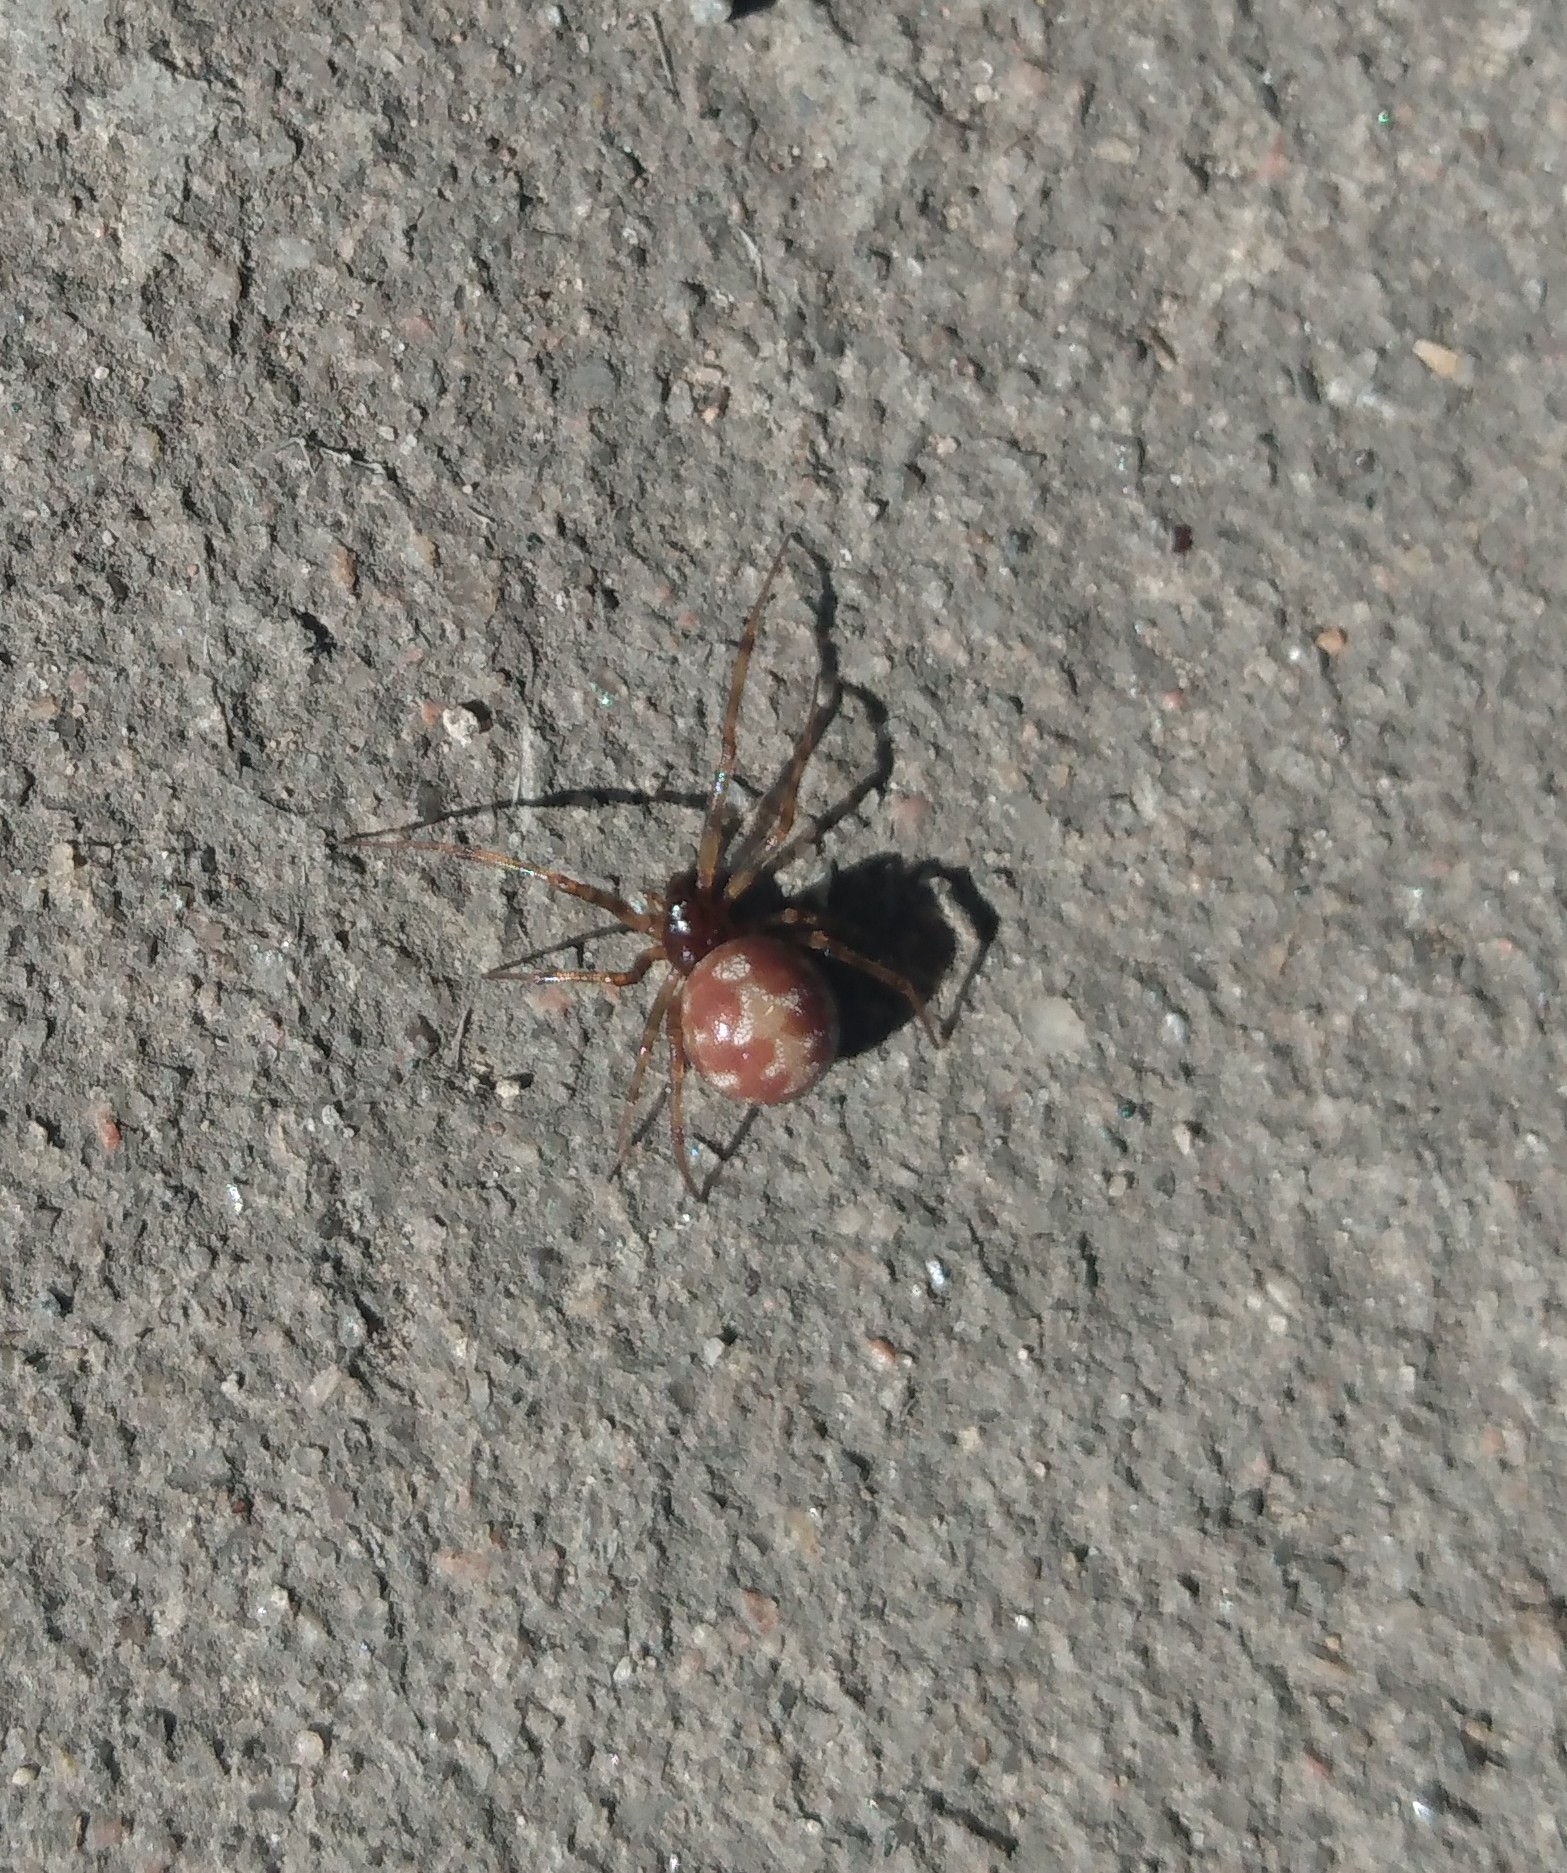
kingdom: Animalia
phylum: Arthropoda
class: Arachnida
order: Araneae
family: Theridiidae
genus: Steatoda
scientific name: Steatoda triangulosa
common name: Triangulate bud spider
